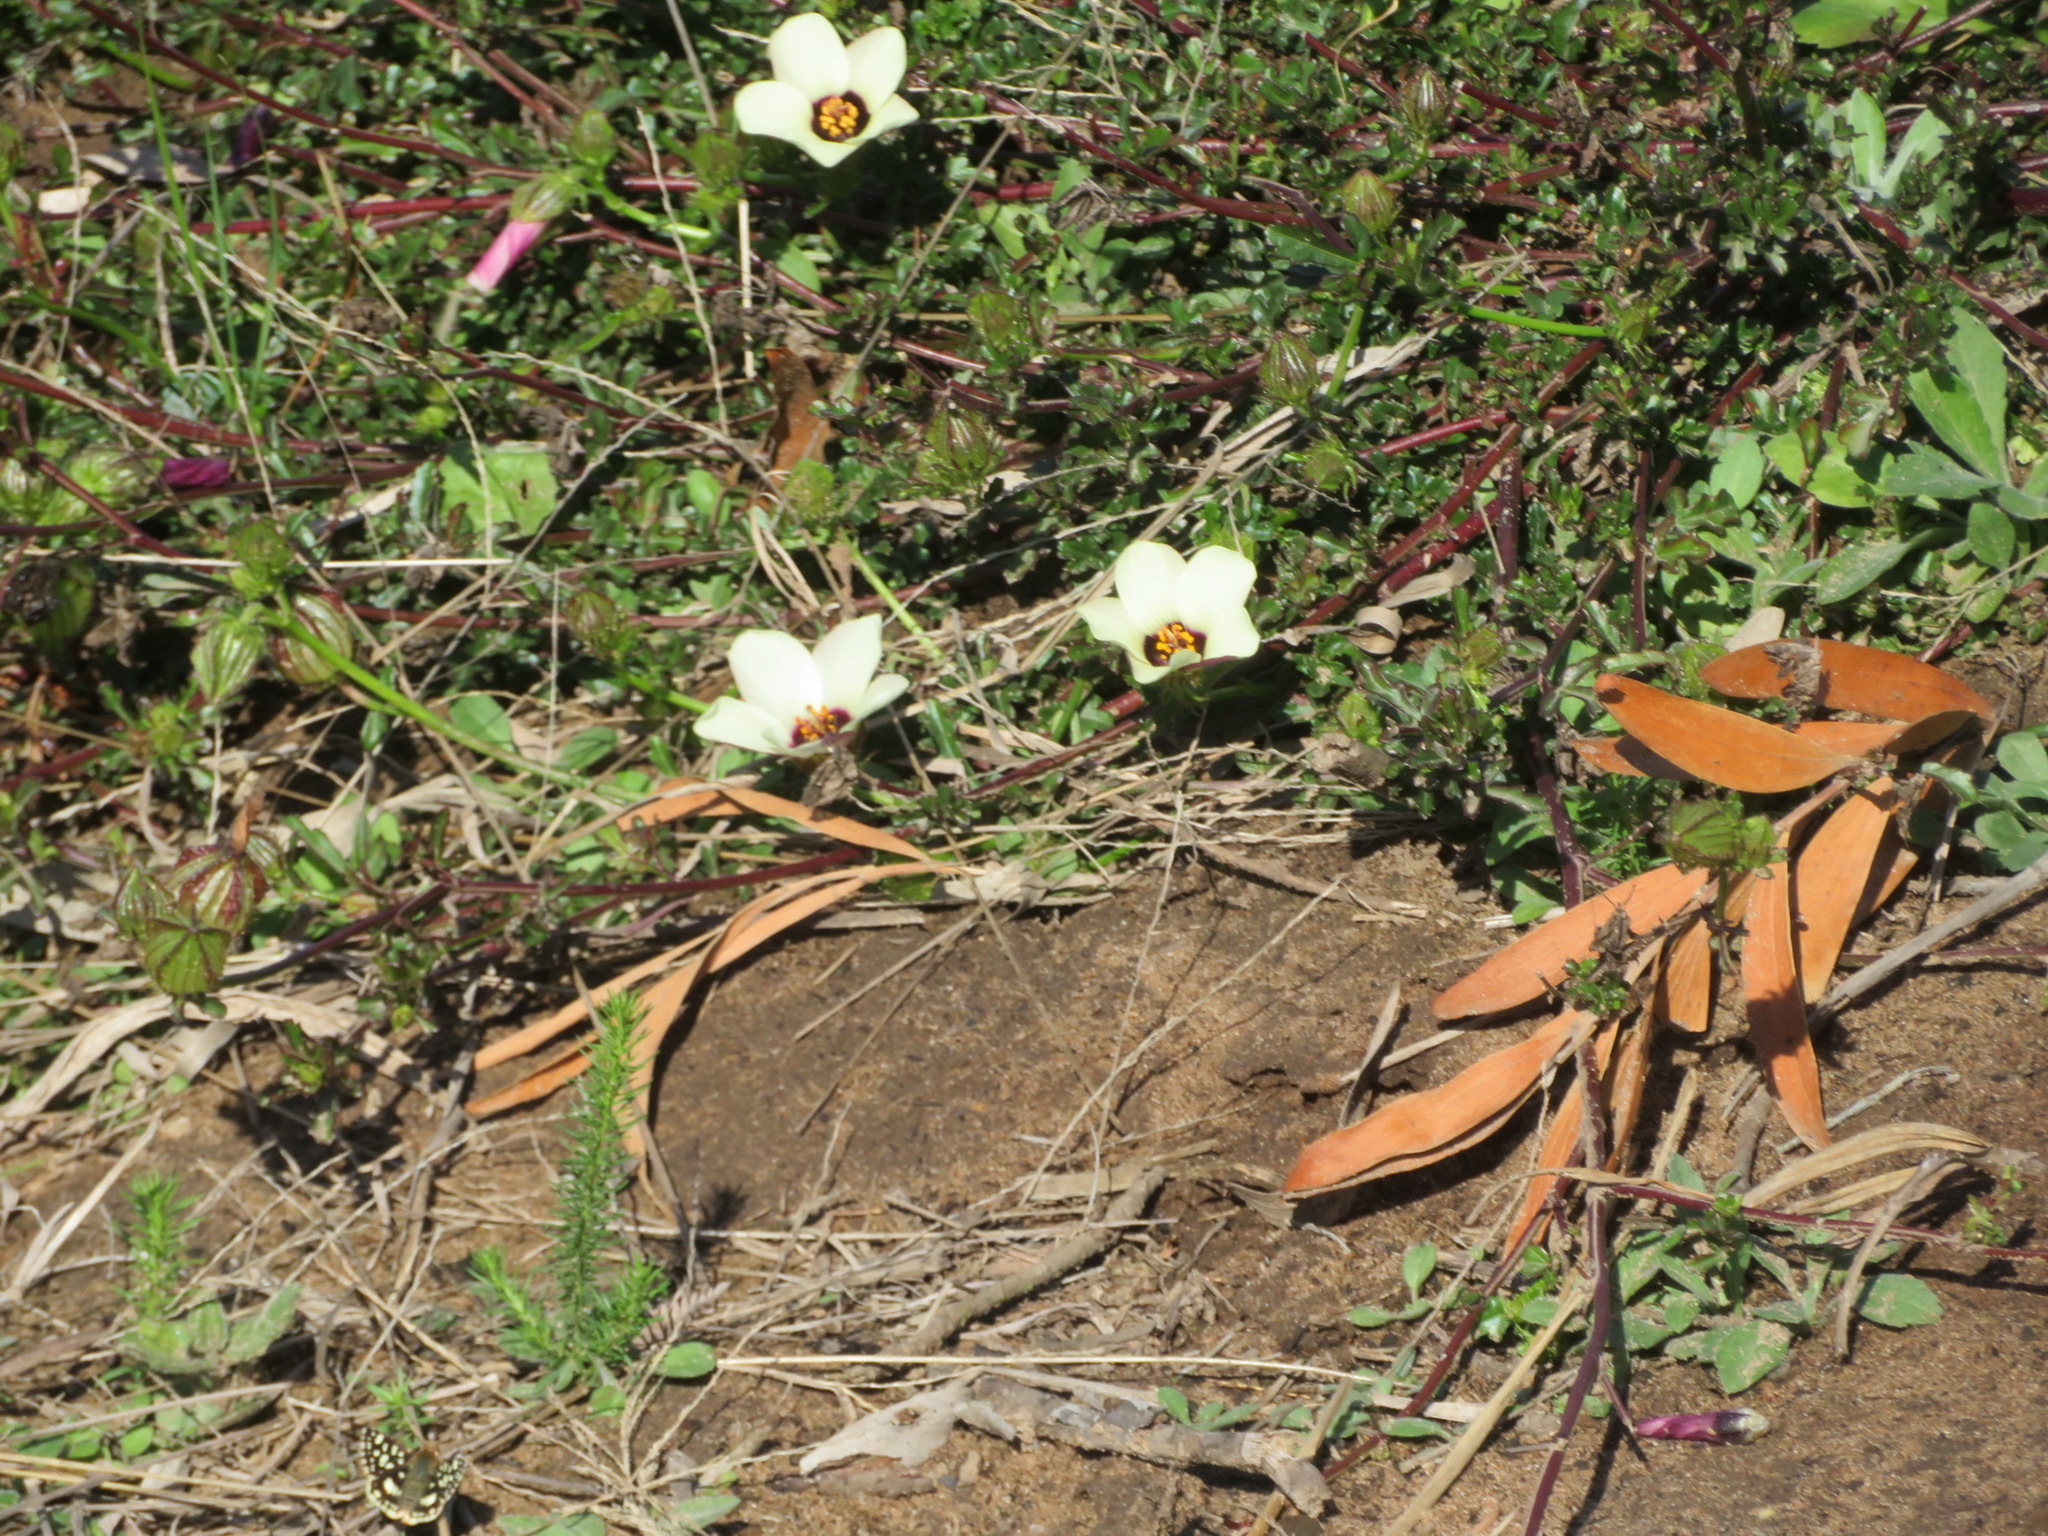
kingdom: Plantae
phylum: Tracheophyta
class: Magnoliopsida
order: Malvales
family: Malvaceae
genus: Hibiscus
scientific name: Hibiscus trionum
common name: Bladder ketmia
